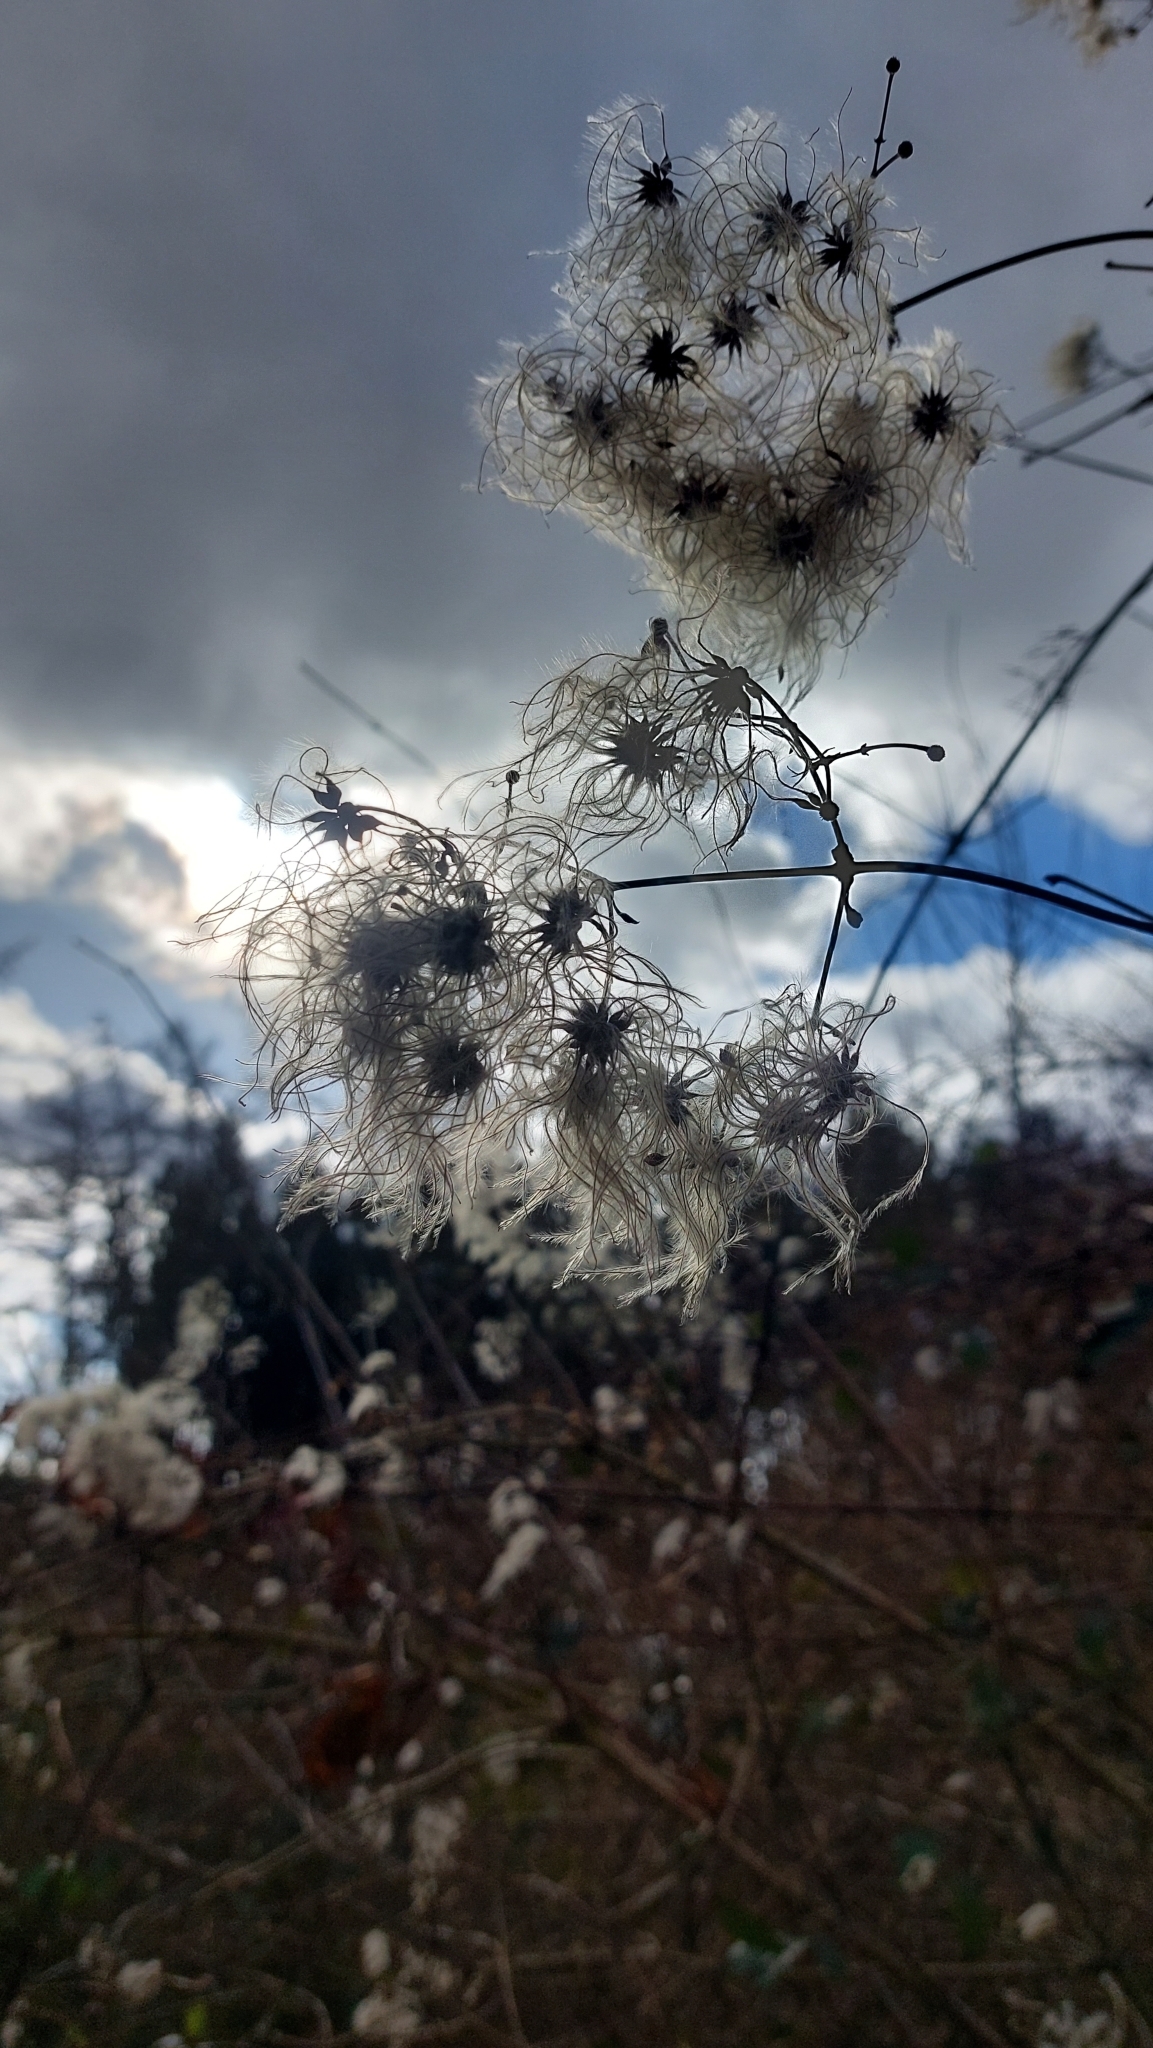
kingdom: Plantae
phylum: Tracheophyta
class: Magnoliopsida
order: Ranunculales
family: Ranunculaceae
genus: Clematis
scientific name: Clematis vitalba
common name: Evergreen clematis
